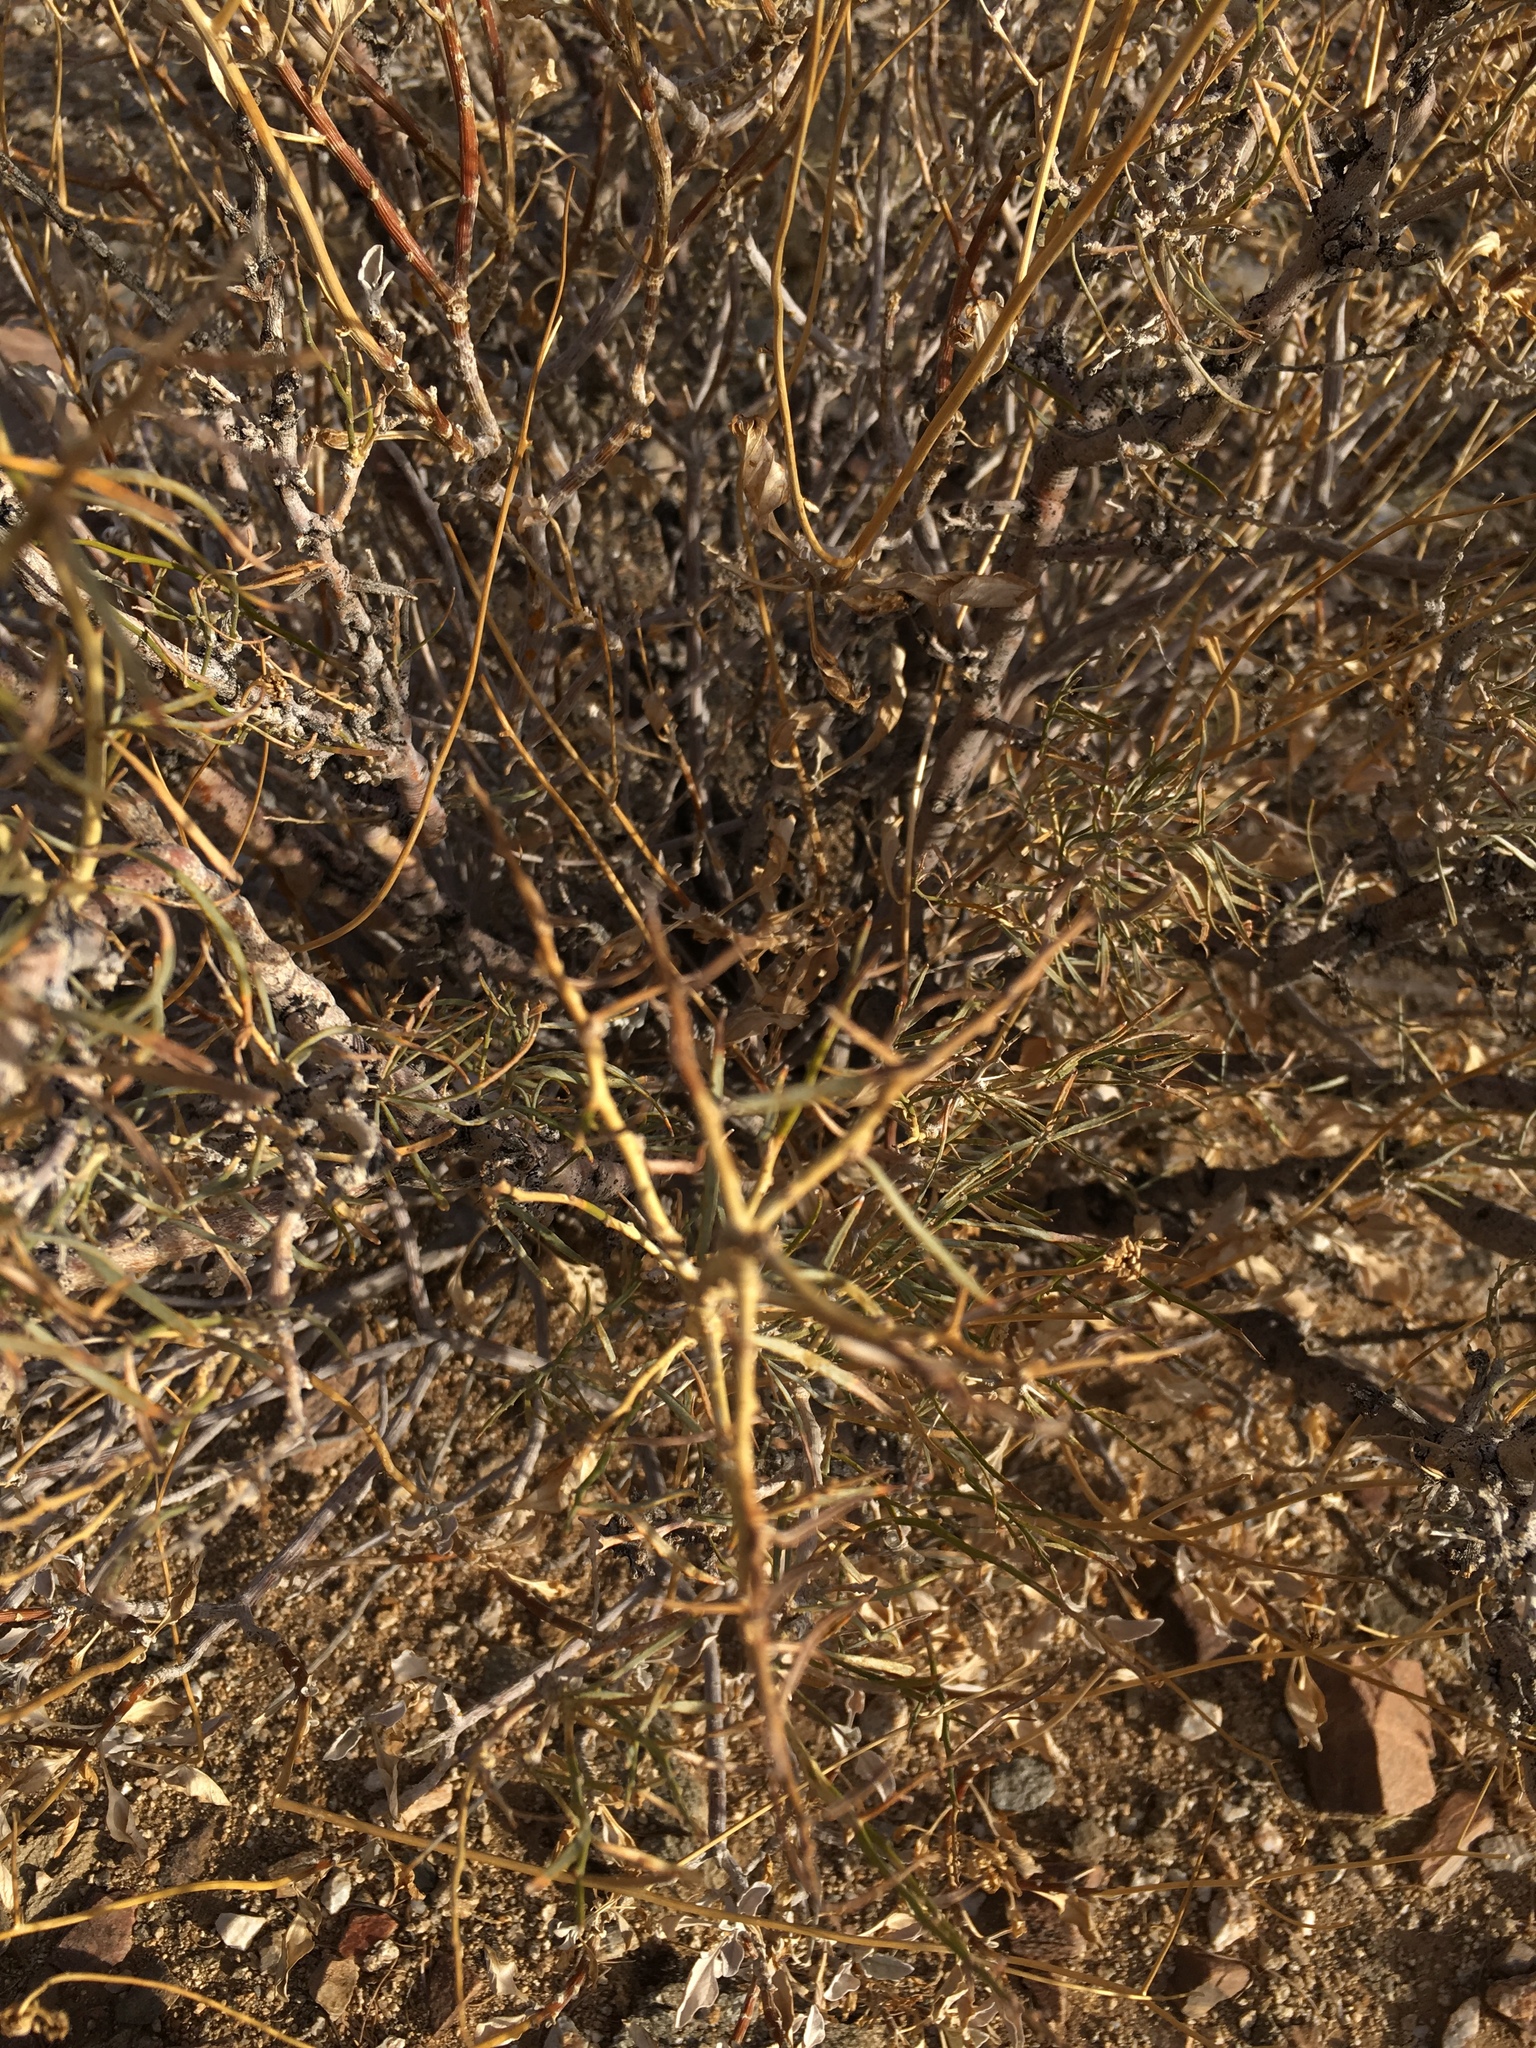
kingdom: Plantae
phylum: Tracheophyta
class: Magnoliopsida
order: Fabales
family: Fabaceae
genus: Psorothamnus
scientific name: Psorothamnus schottii
